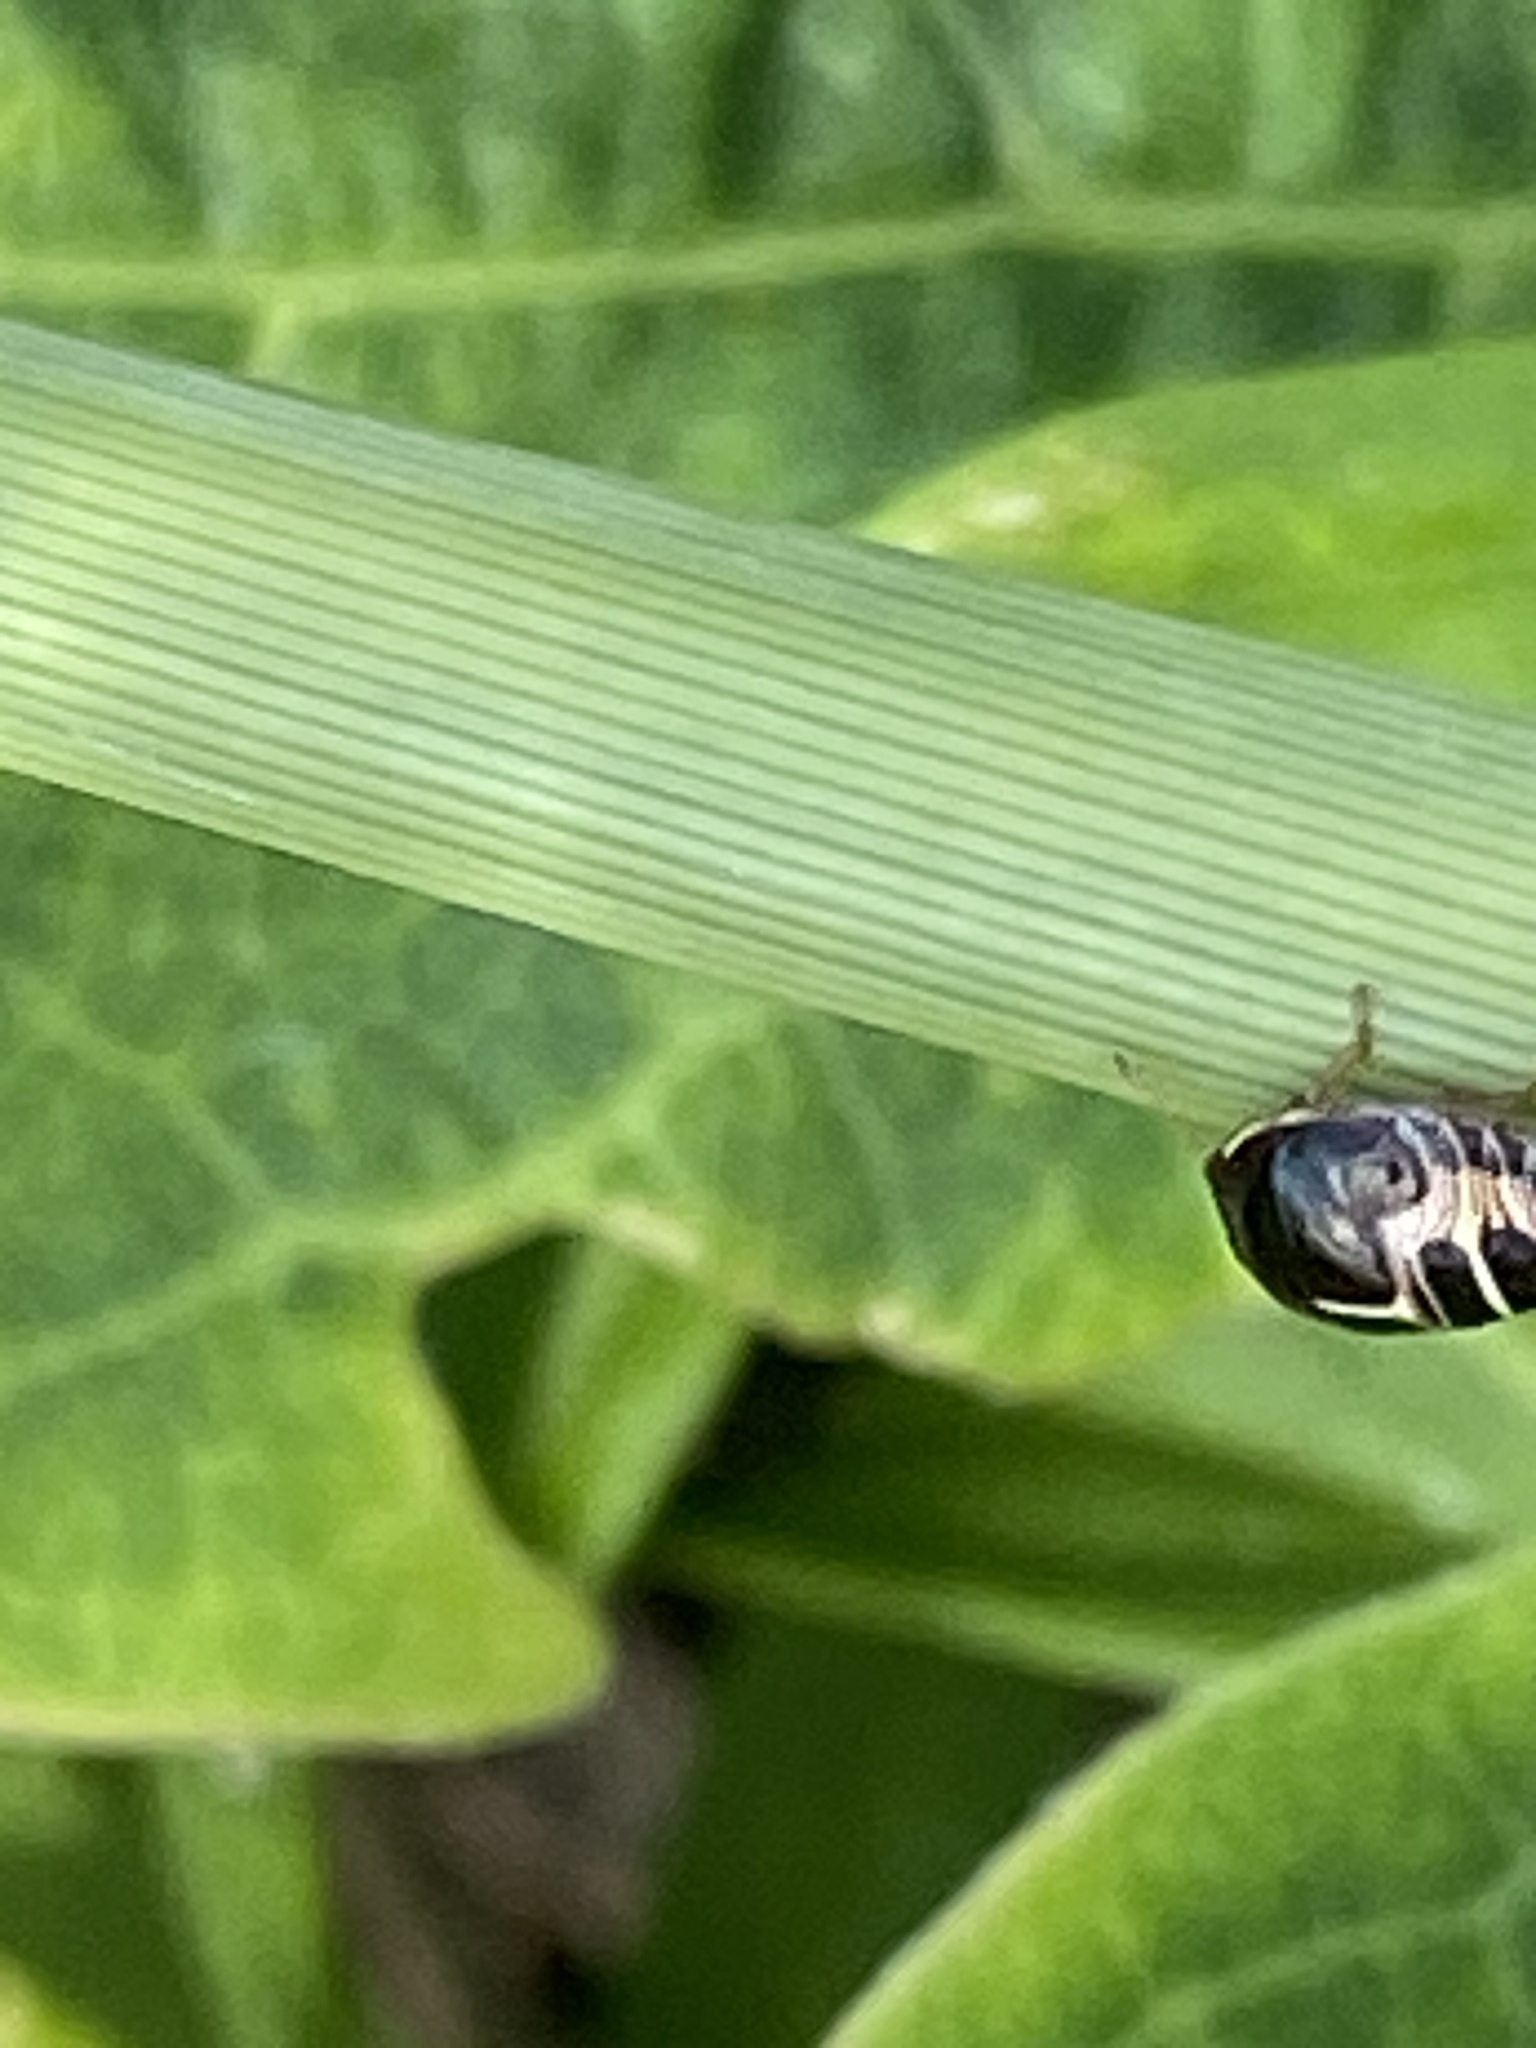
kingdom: Animalia
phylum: Arthropoda
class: Insecta
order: Hemiptera
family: Plataspidae
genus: Brachyplatys
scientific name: Brachyplatys subaeneus
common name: Black bean bug
